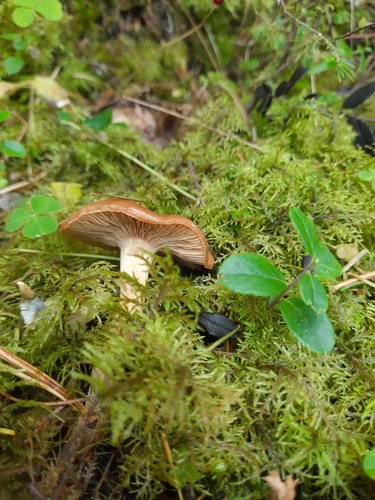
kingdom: Fungi
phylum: Basidiomycota
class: Agaricomycetes
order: Agaricales
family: Cortinariaceae
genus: Cortinarius
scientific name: Cortinarius
